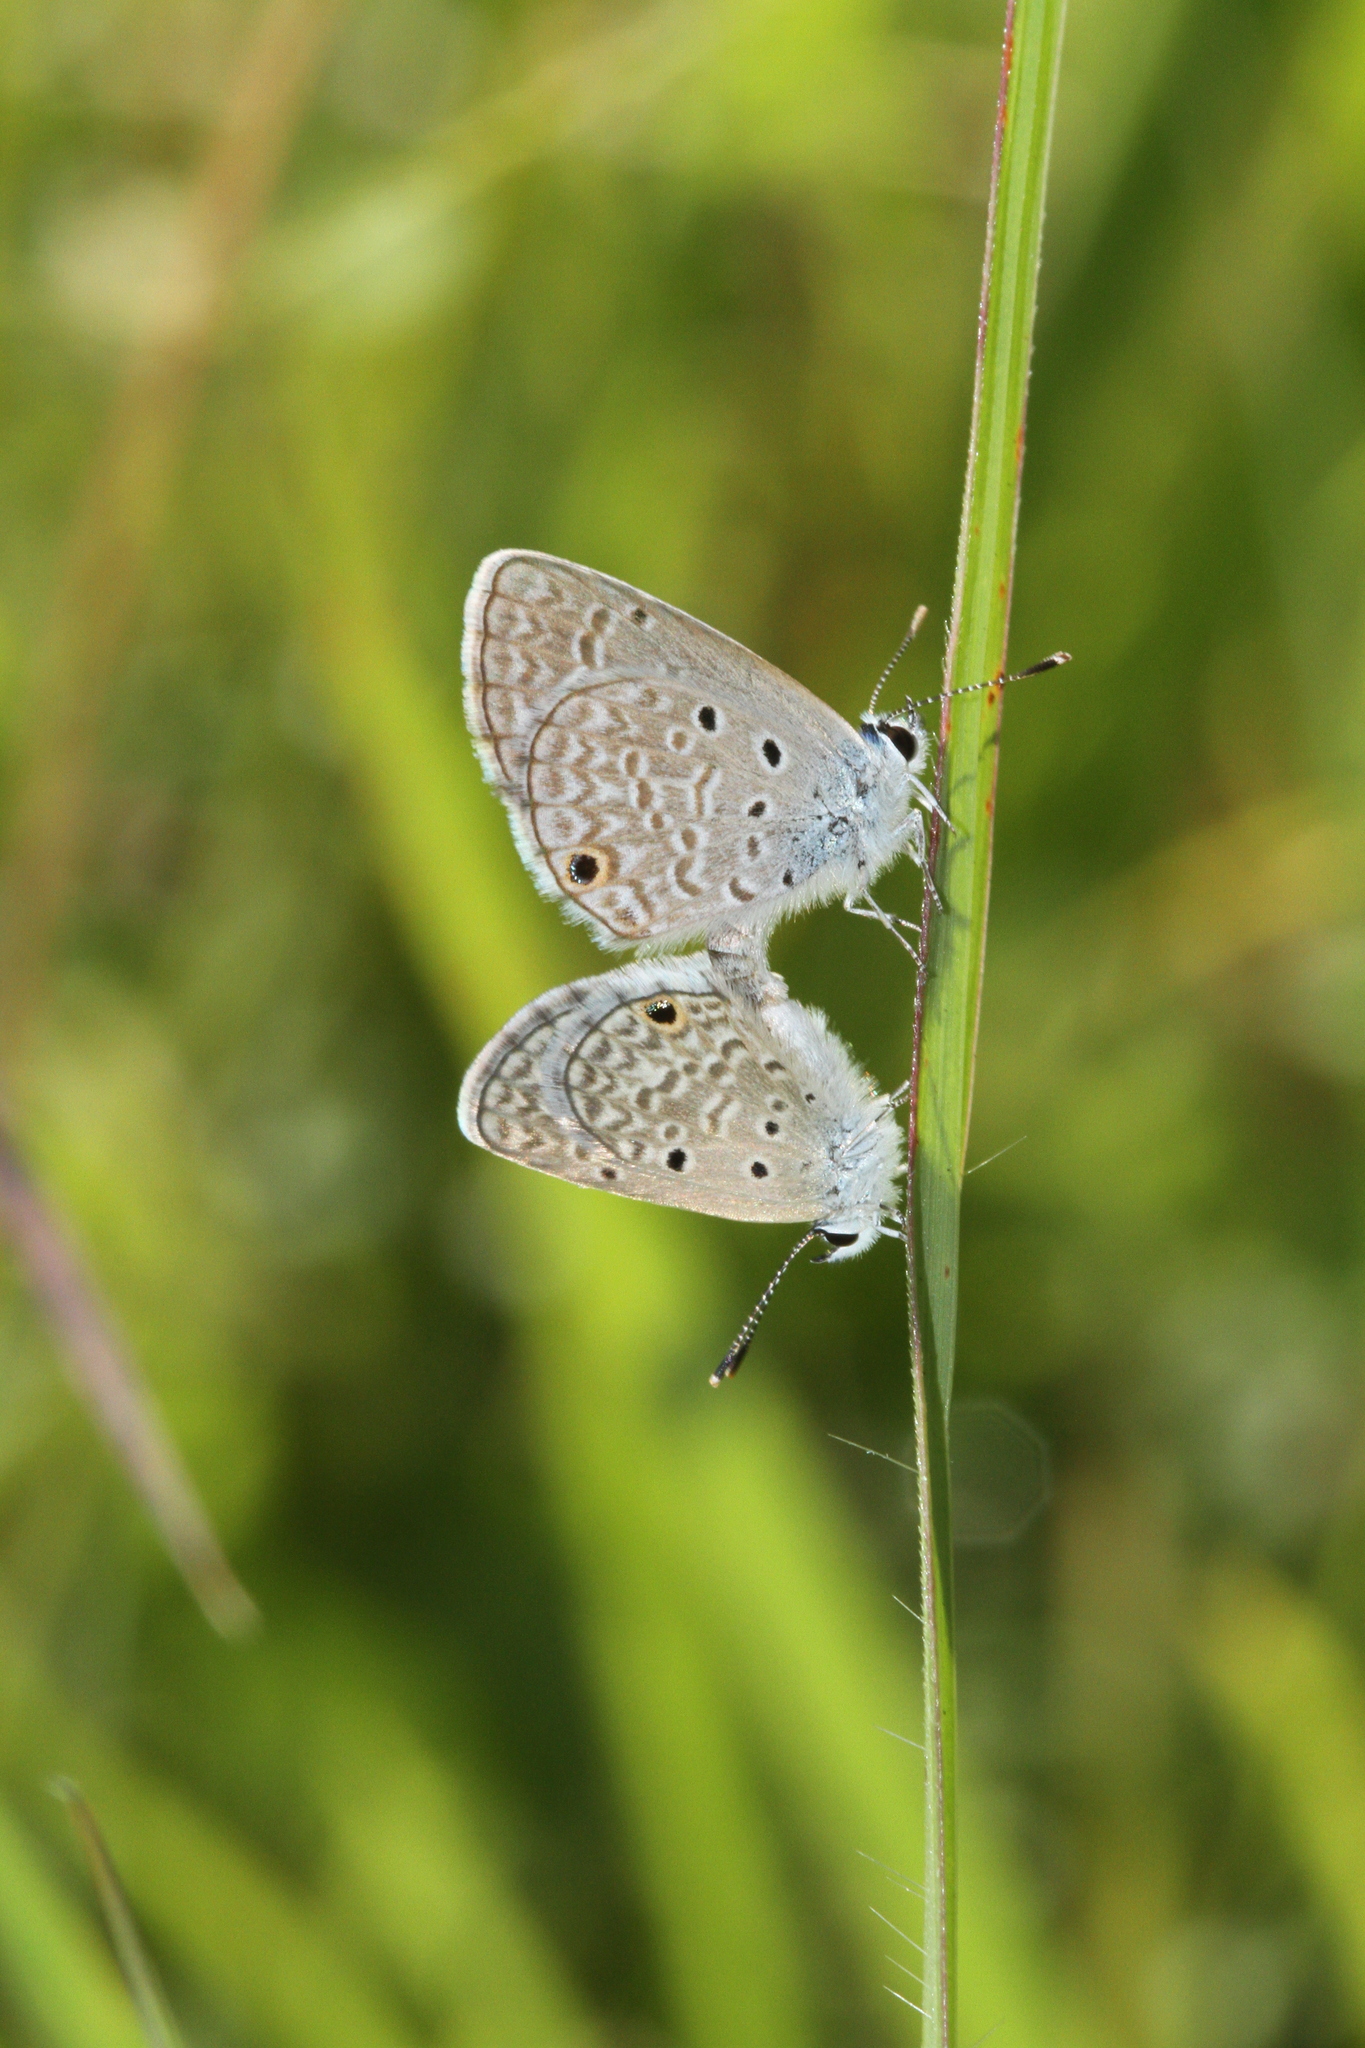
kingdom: Animalia
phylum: Arthropoda
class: Insecta
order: Lepidoptera
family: Lycaenidae
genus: Hemiargus
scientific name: Hemiargus hanno
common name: Common blue
